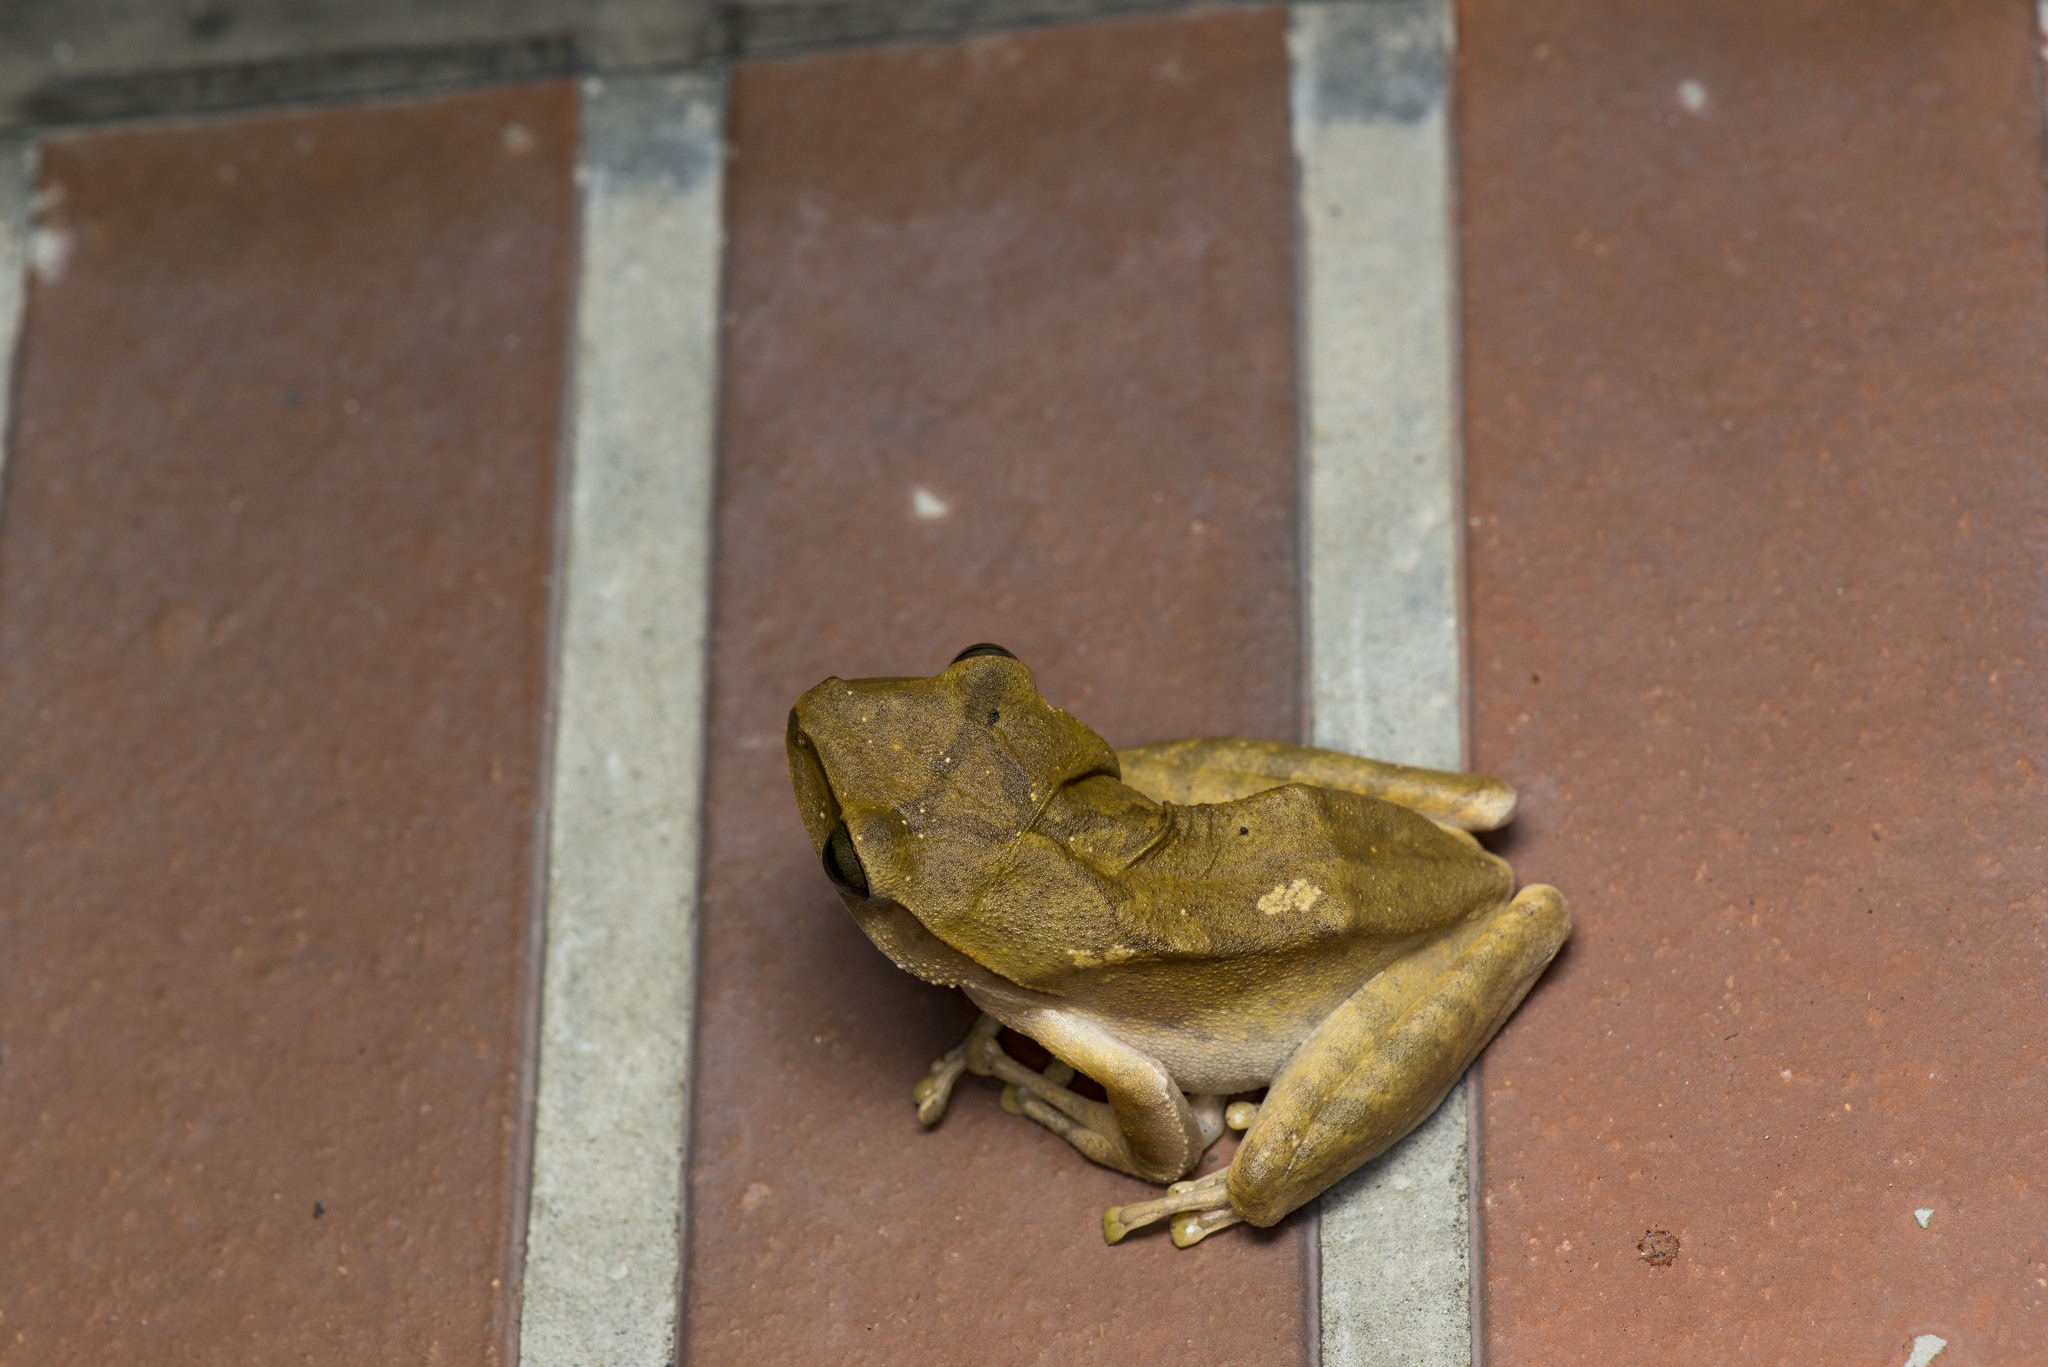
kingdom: Animalia
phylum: Chordata
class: Amphibia
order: Anura
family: Rhacophoridae
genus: Polypedates
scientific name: Polypedates megacephalus
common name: Hong kong whipping frog
